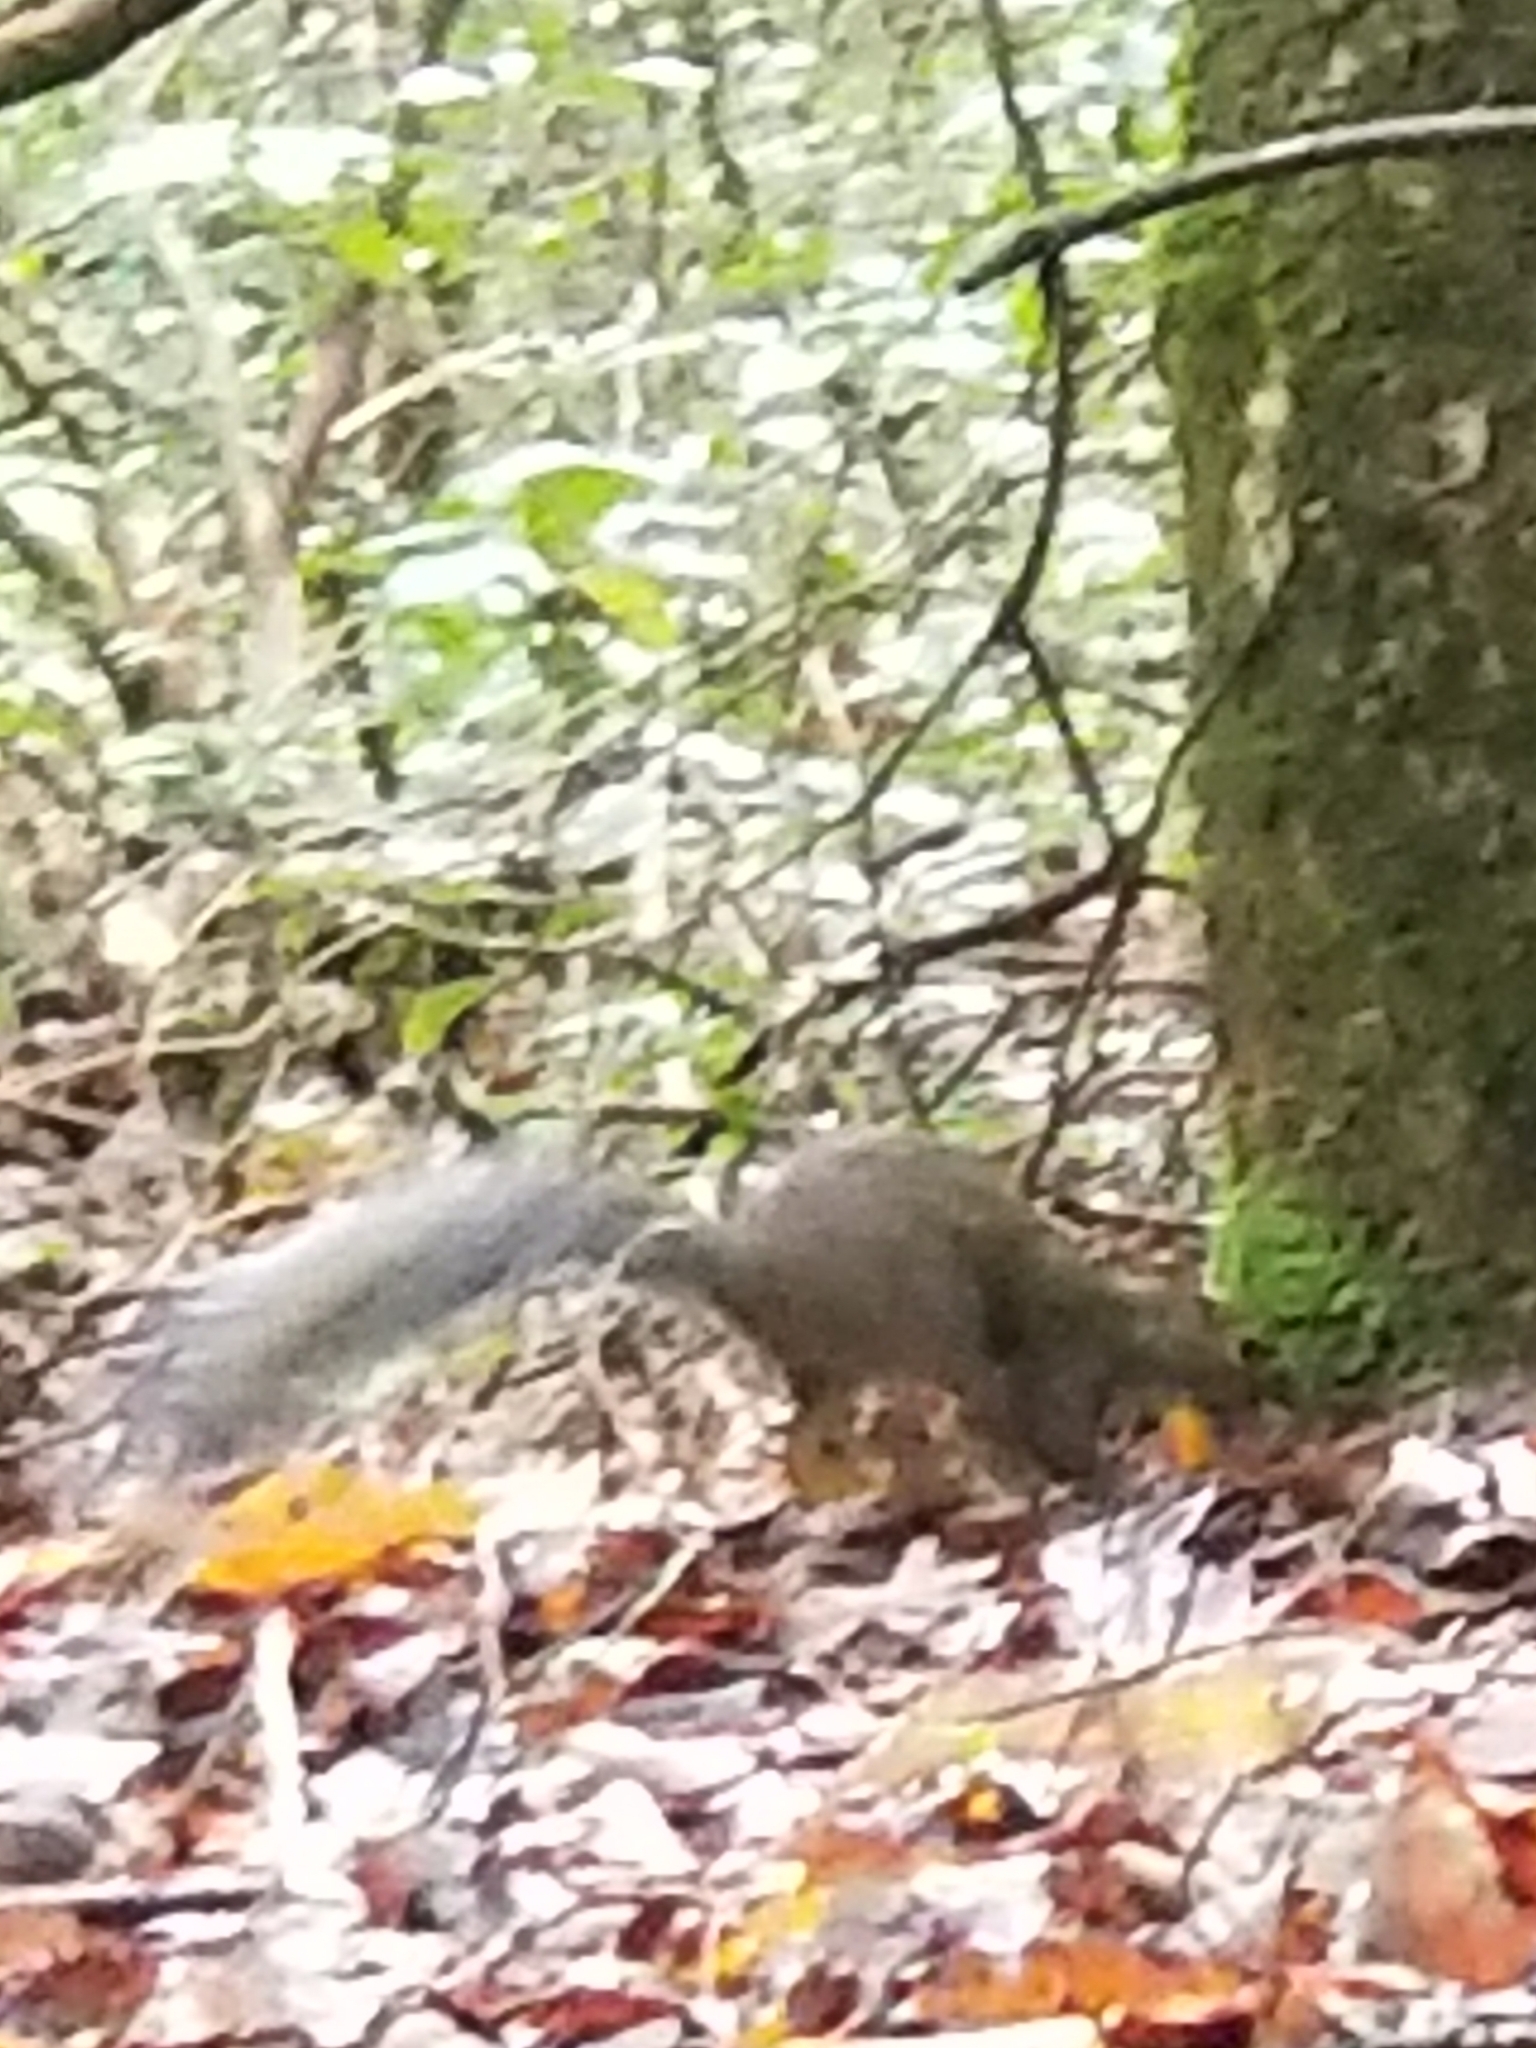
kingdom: Animalia
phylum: Chordata
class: Mammalia
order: Rodentia
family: Sciuridae
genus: Sciurus
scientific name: Sciurus carolinensis
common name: Eastern gray squirrel
